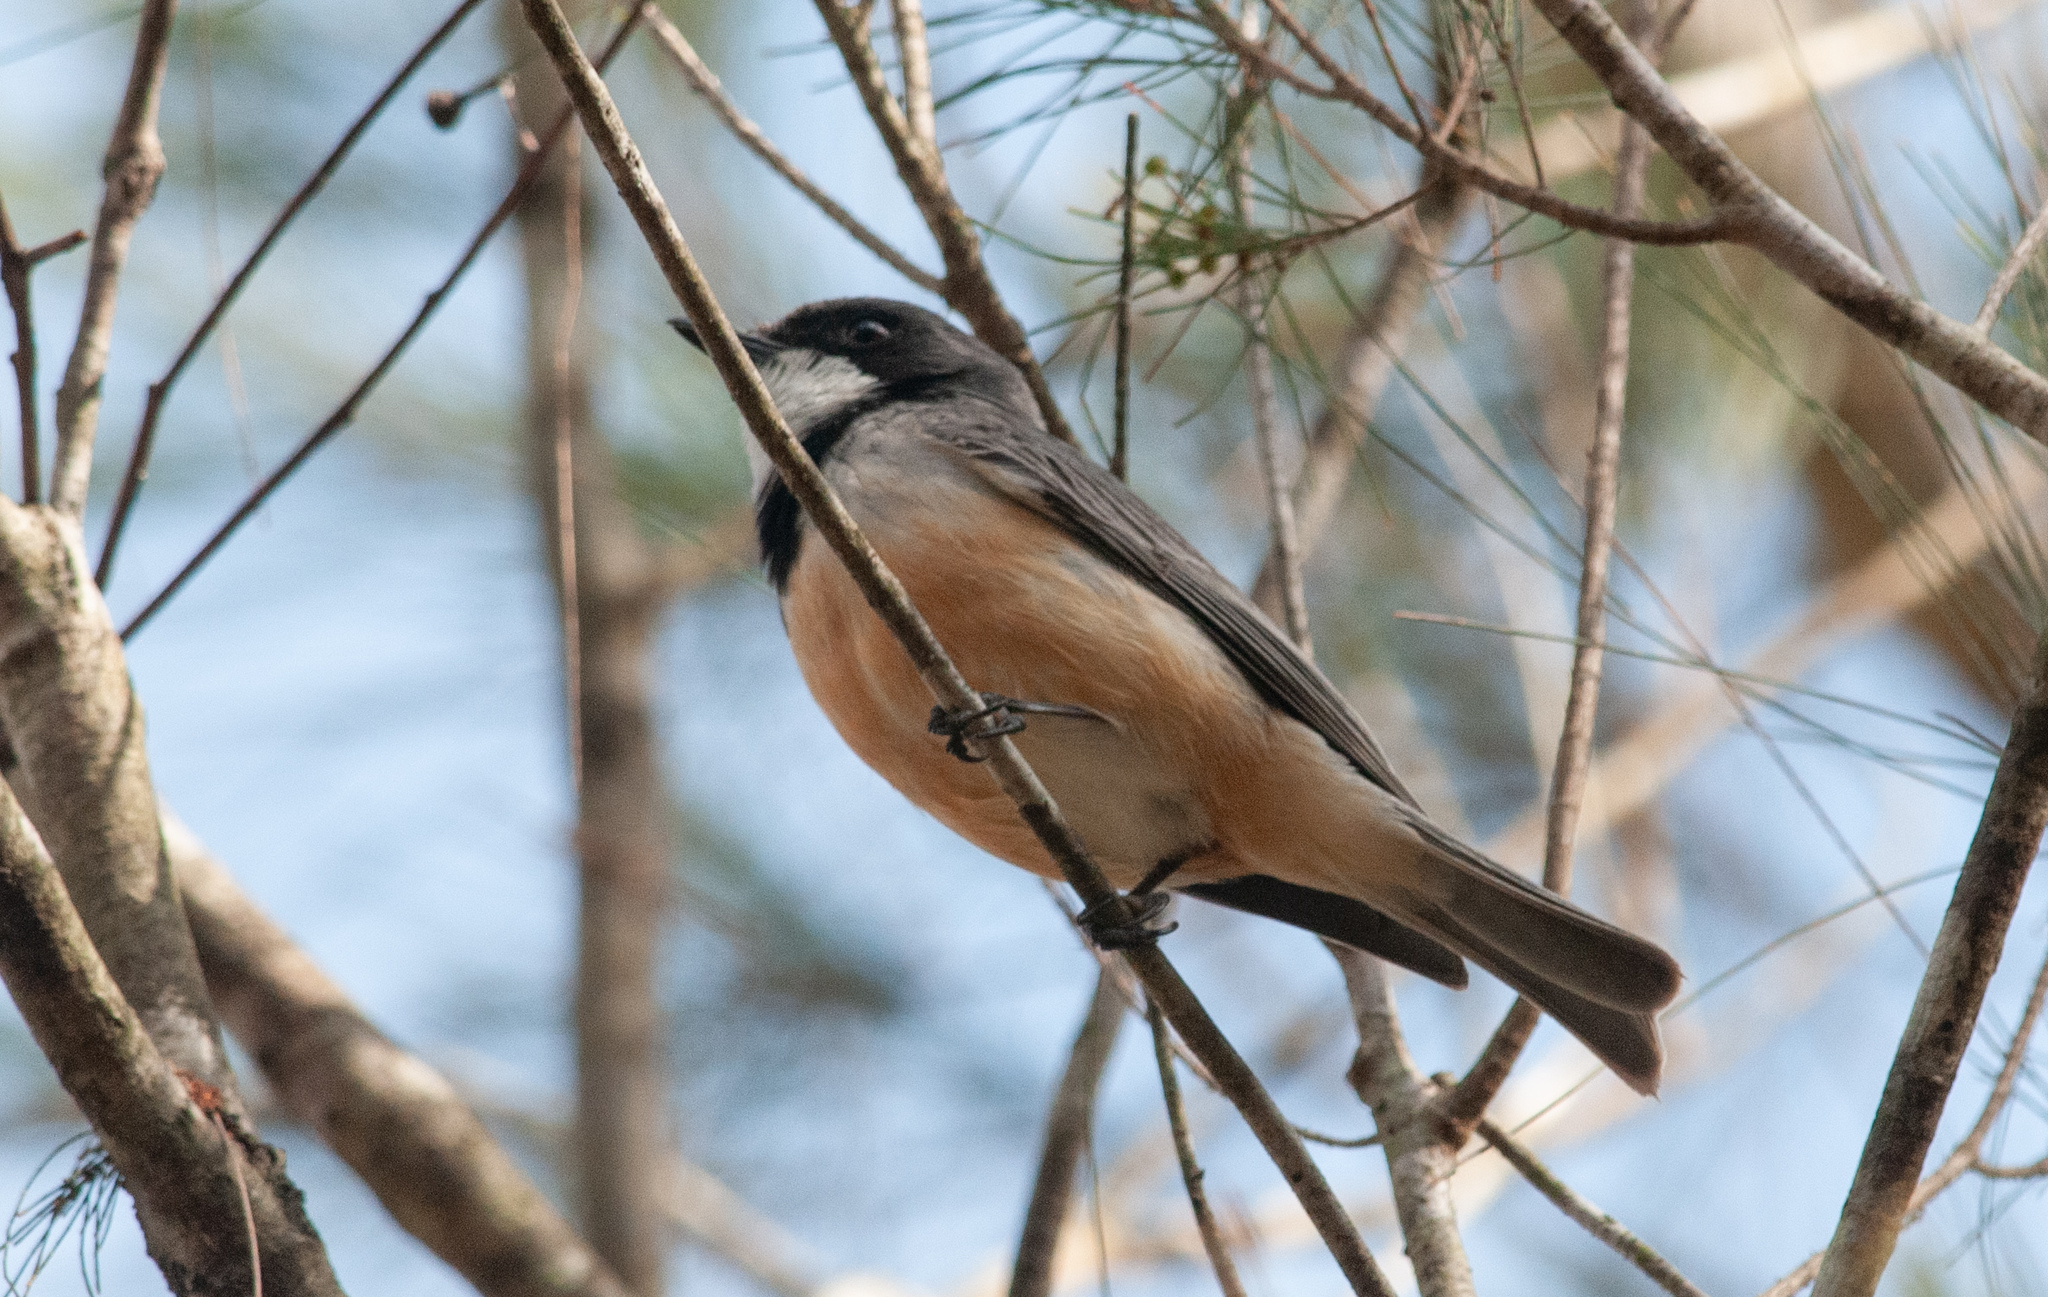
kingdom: Animalia
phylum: Chordata
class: Aves
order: Passeriformes
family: Pachycephalidae
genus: Pachycephala
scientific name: Pachycephala rufiventris
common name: Rufous whistler
